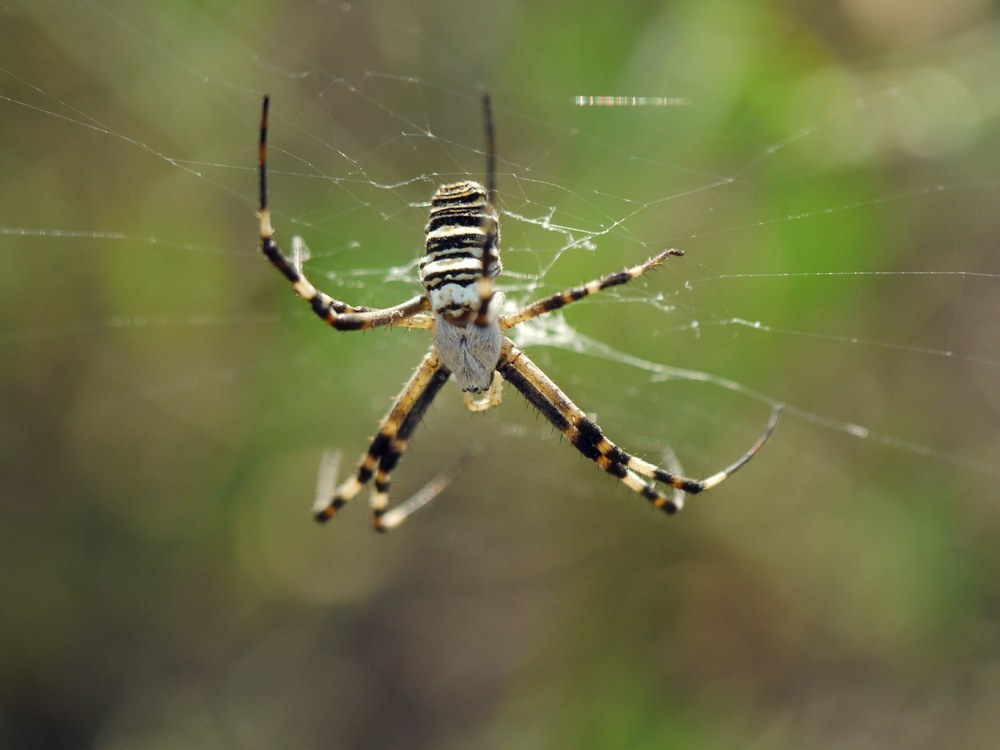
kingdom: Animalia
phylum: Arthropoda
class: Arachnida
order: Araneae
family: Araneidae
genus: Argiope
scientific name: Argiope bruennichi
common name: Wasp spider
